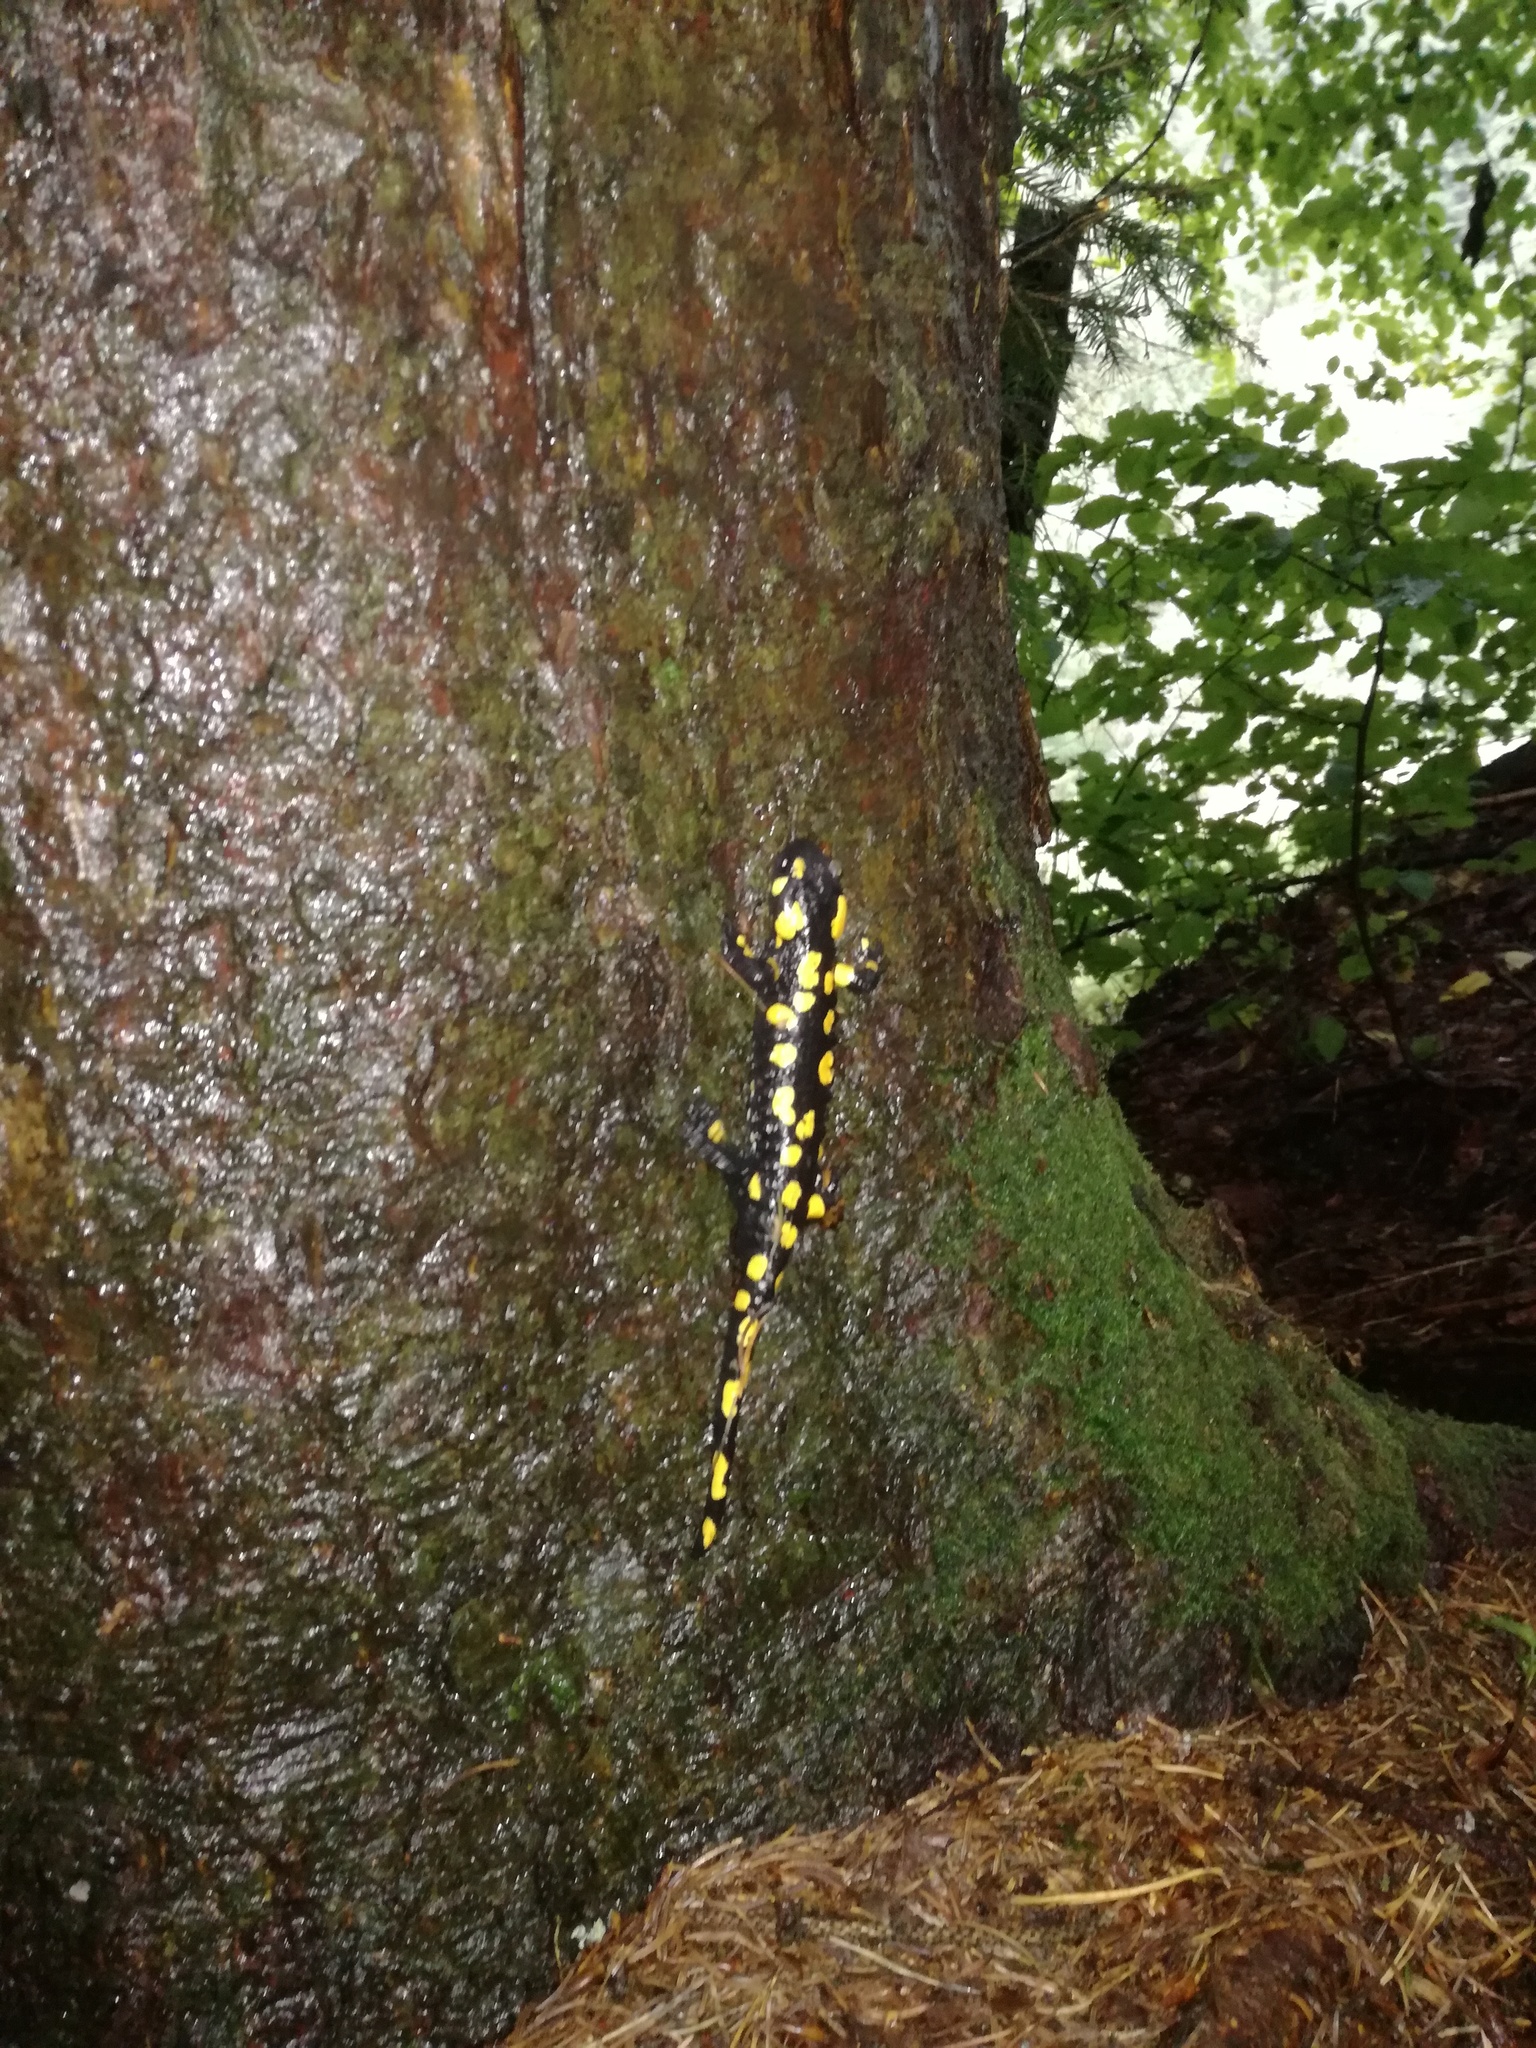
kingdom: Animalia
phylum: Chordata
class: Amphibia
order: Caudata
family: Salamandridae
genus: Salamandra
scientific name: Salamandra salamandra
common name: Fire salamander
